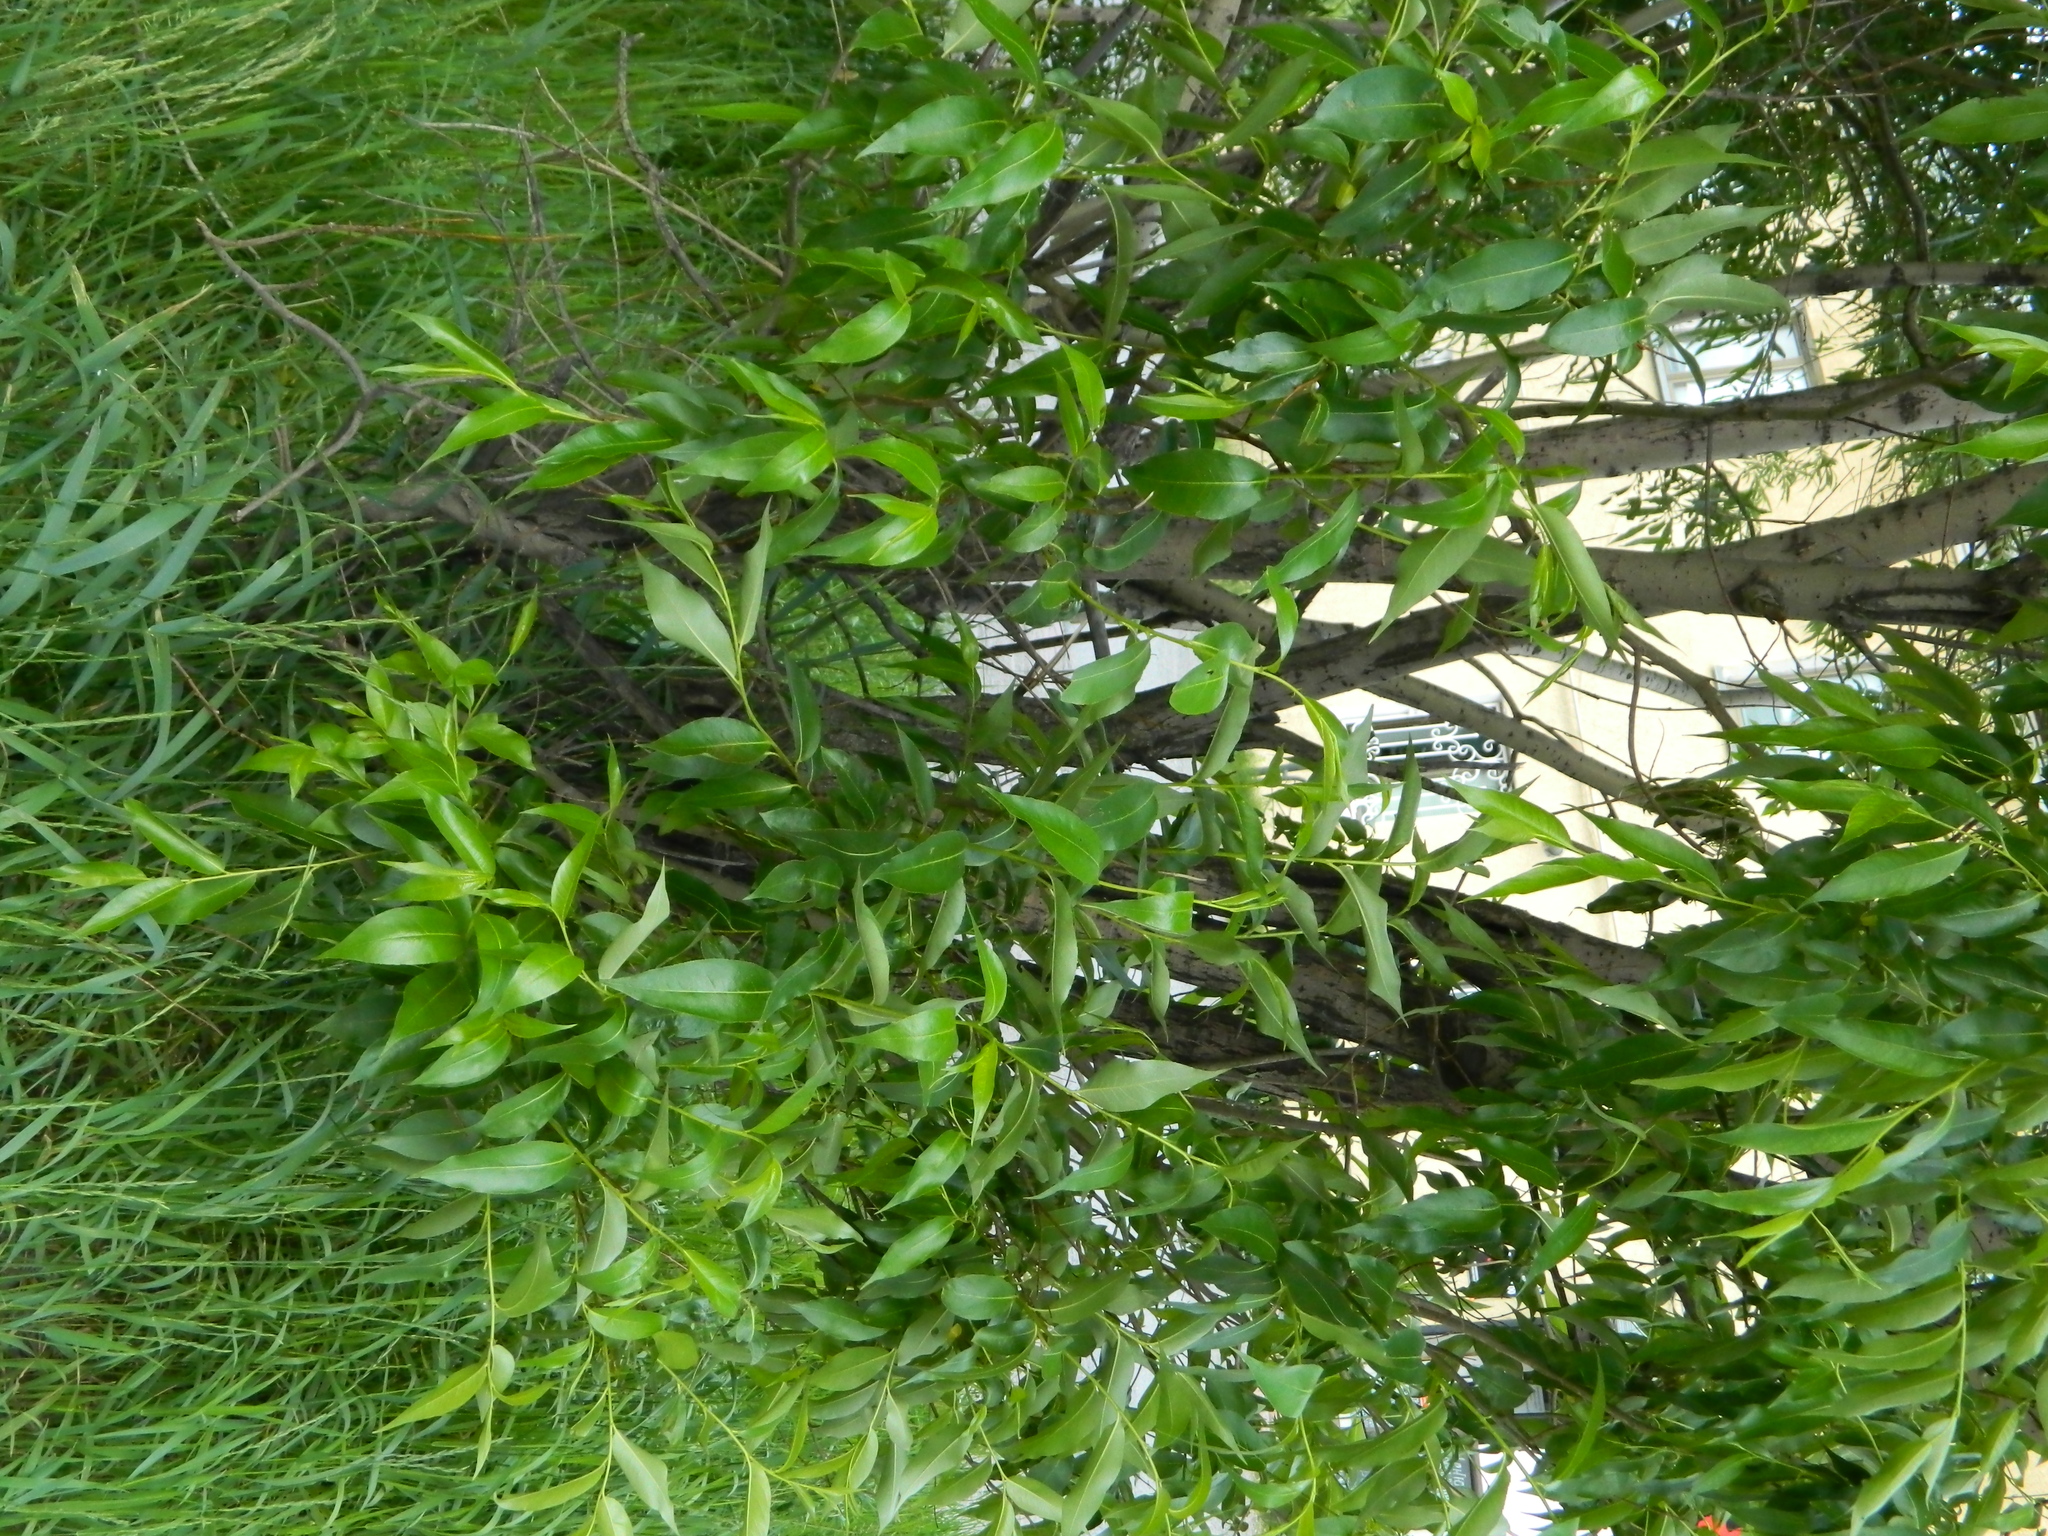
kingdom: Plantae
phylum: Tracheophyta
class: Magnoliopsida
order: Malpighiales
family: Salicaceae
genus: Salix
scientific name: Salix pentandra
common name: Bay willow
